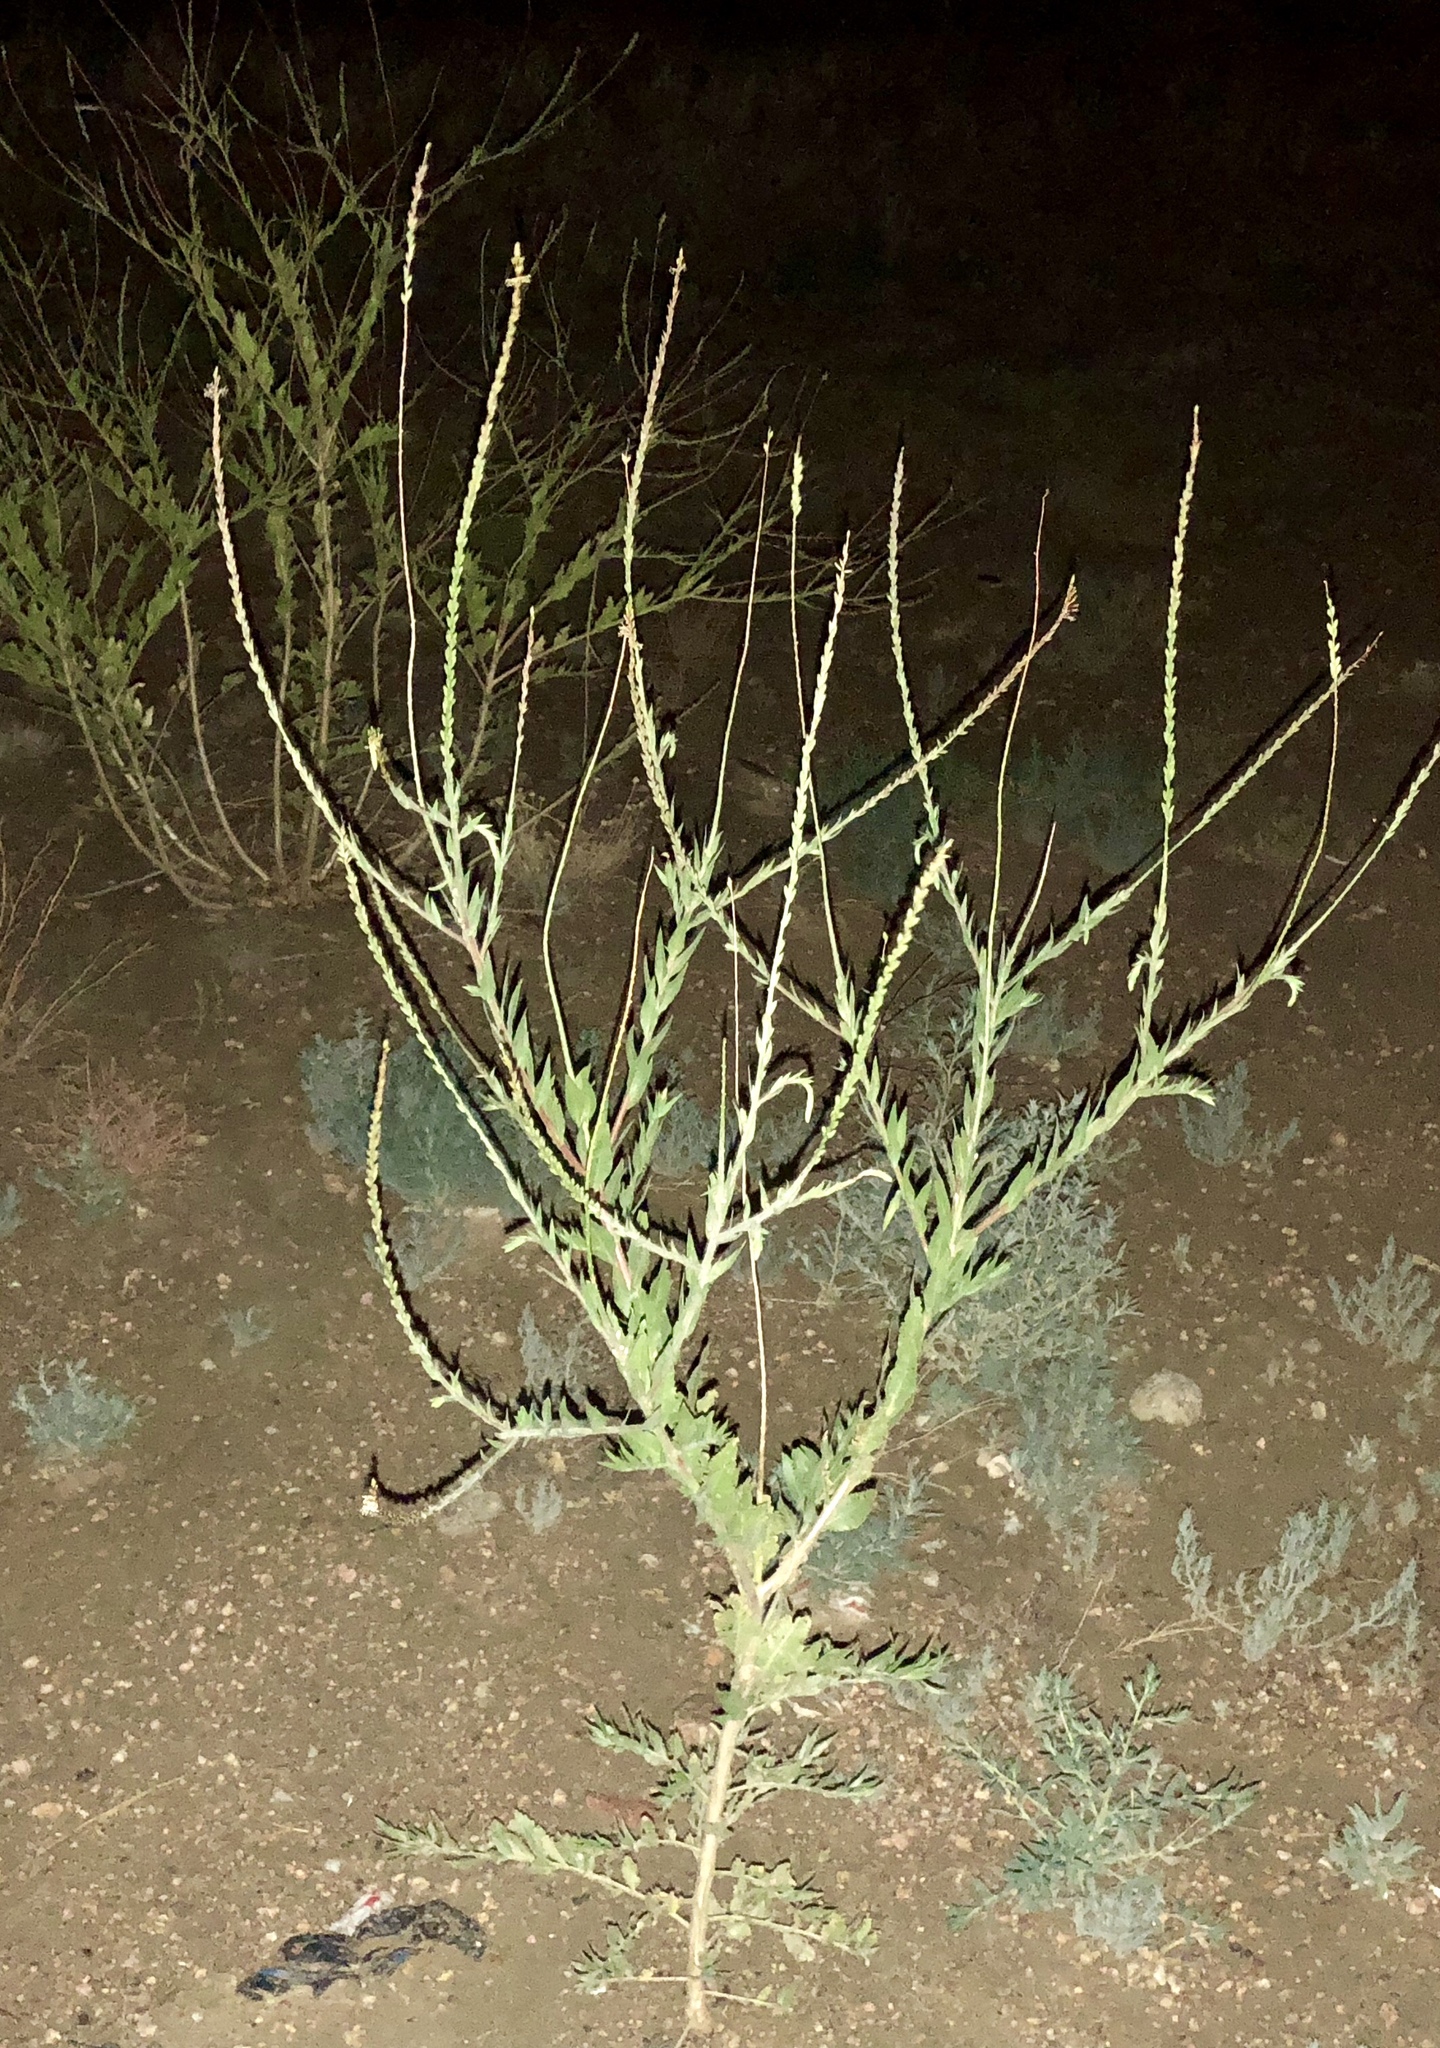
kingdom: Plantae
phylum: Tracheophyta
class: Magnoliopsida
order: Myrtales
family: Onagraceae
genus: Oenothera
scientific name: Oenothera curtiflora
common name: Velvetweed
